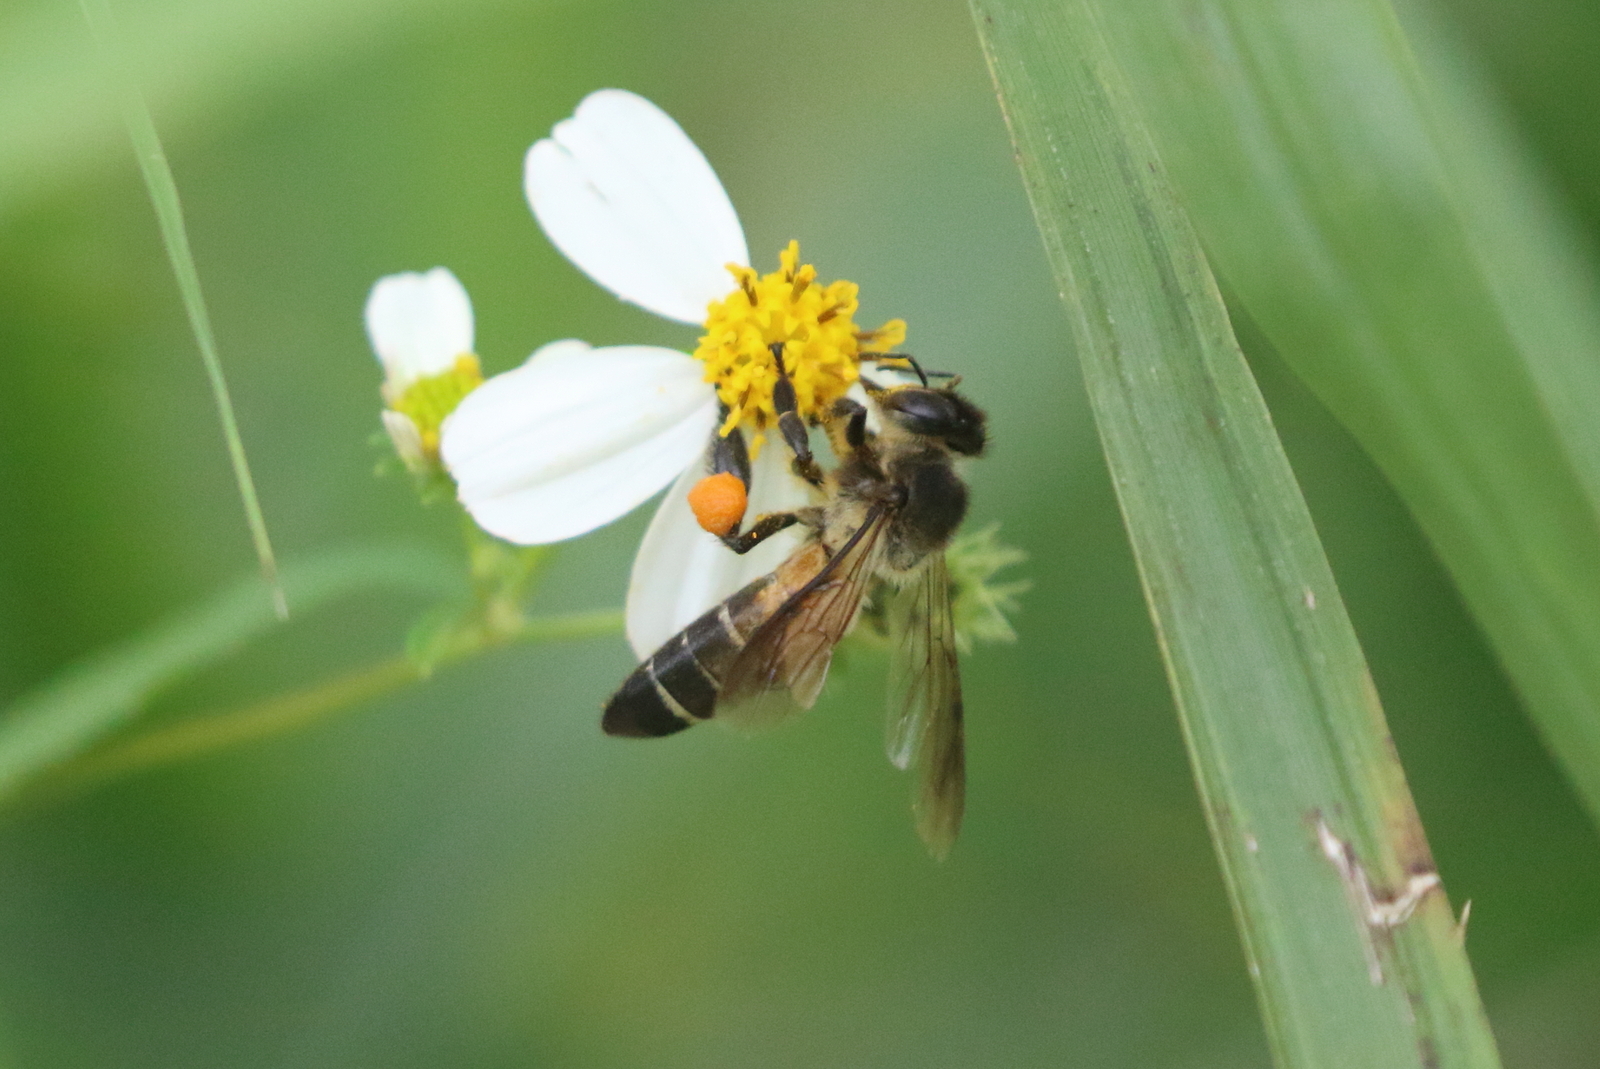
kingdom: Animalia
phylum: Arthropoda
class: Insecta
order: Hymenoptera
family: Apidae
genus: Apis
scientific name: Apis dorsata
